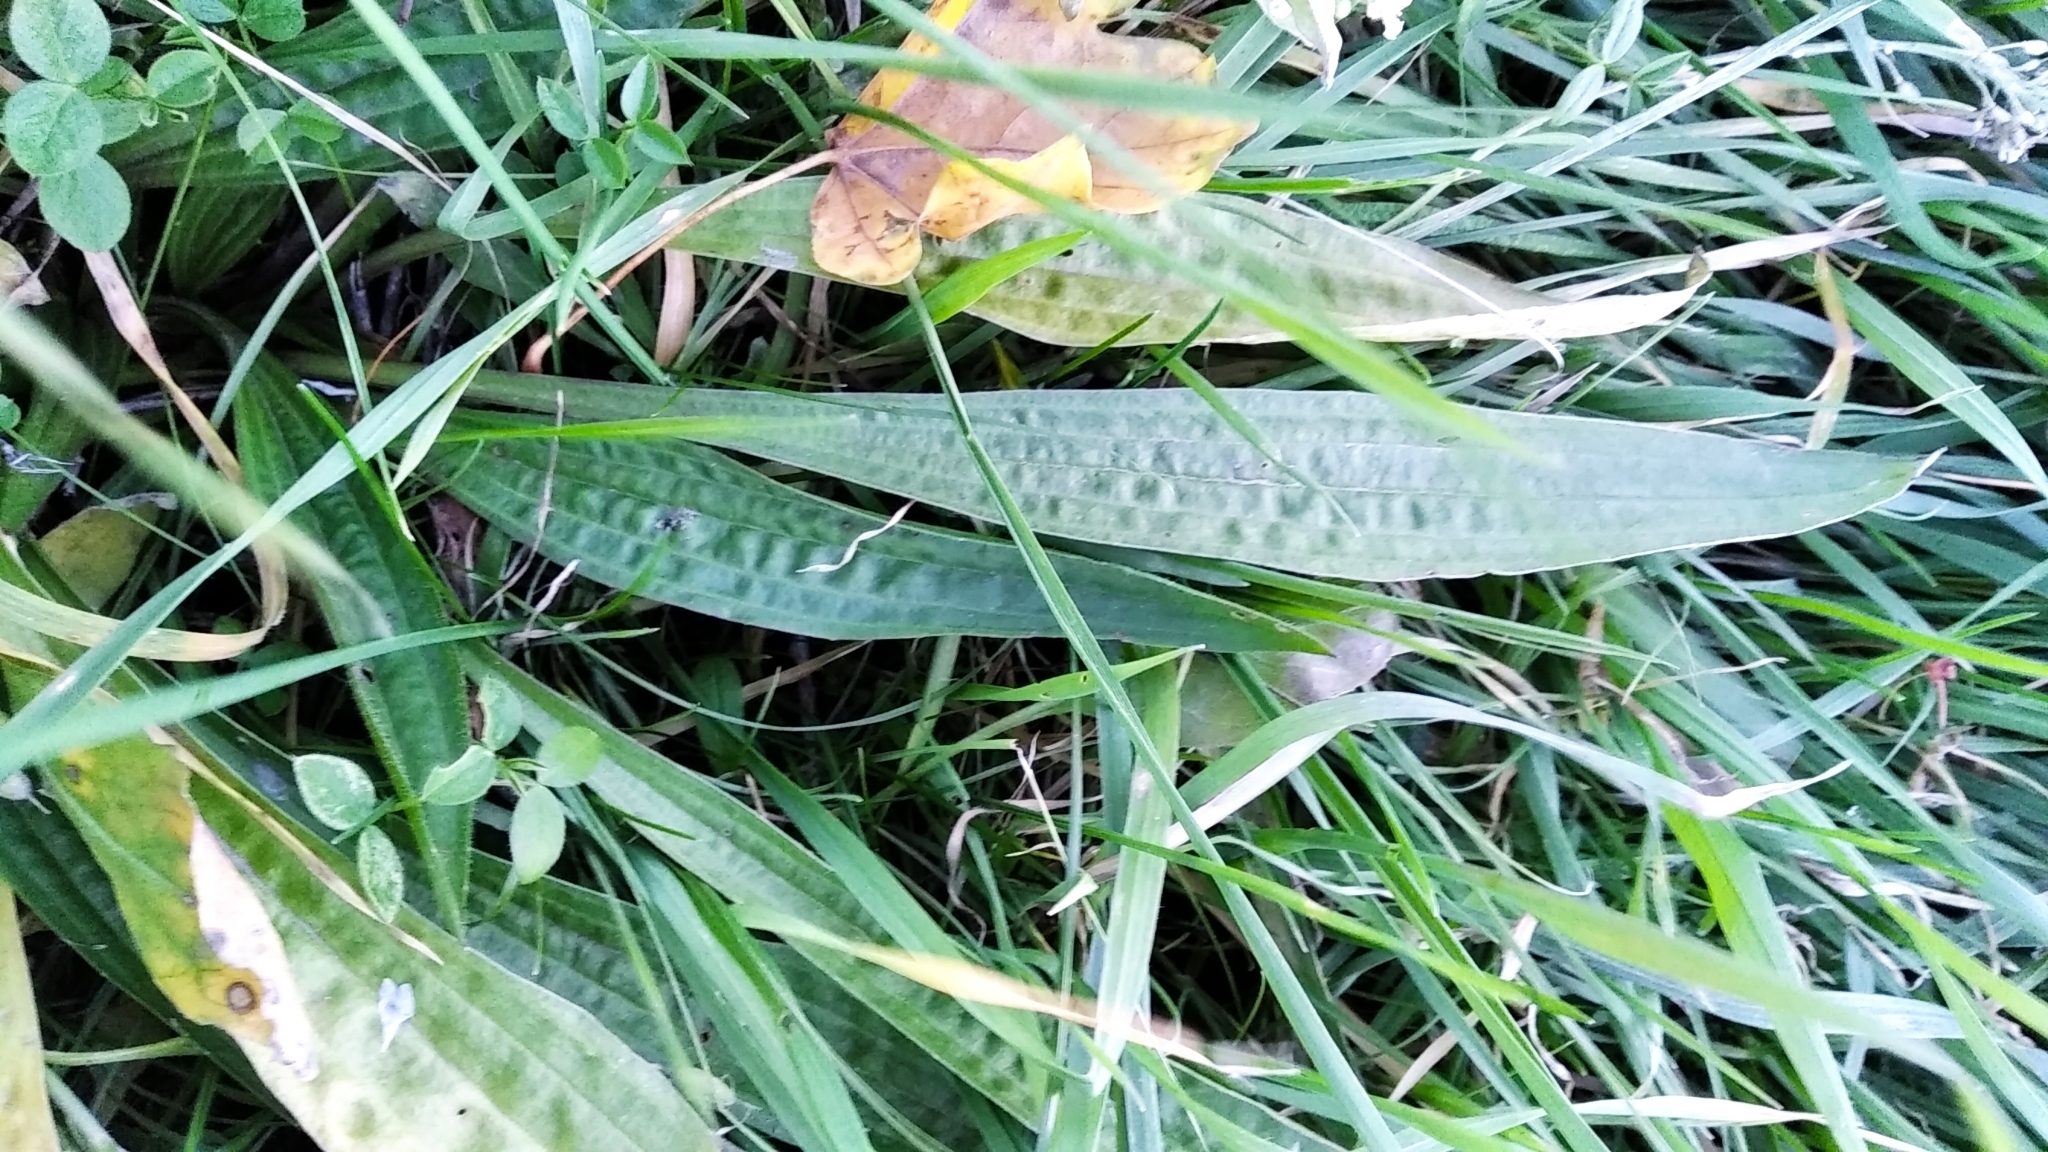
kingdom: Plantae
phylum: Tracheophyta
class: Magnoliopsida
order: Lamiales
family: Plantaginaceae
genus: Plantago
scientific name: Plantago lanceolata
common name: Ribwort plantain
